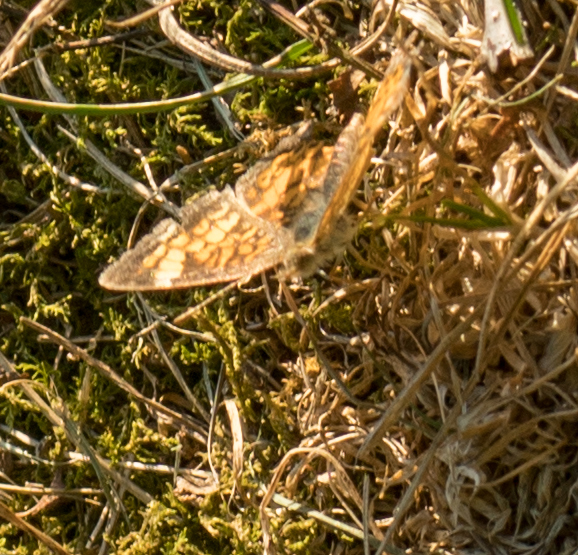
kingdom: Animalia
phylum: Arthropoda
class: Insecta
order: Lepidoptera
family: Nymphalidae
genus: Phyciodes
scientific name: Phyciodes tharos
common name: Pearl crescent
